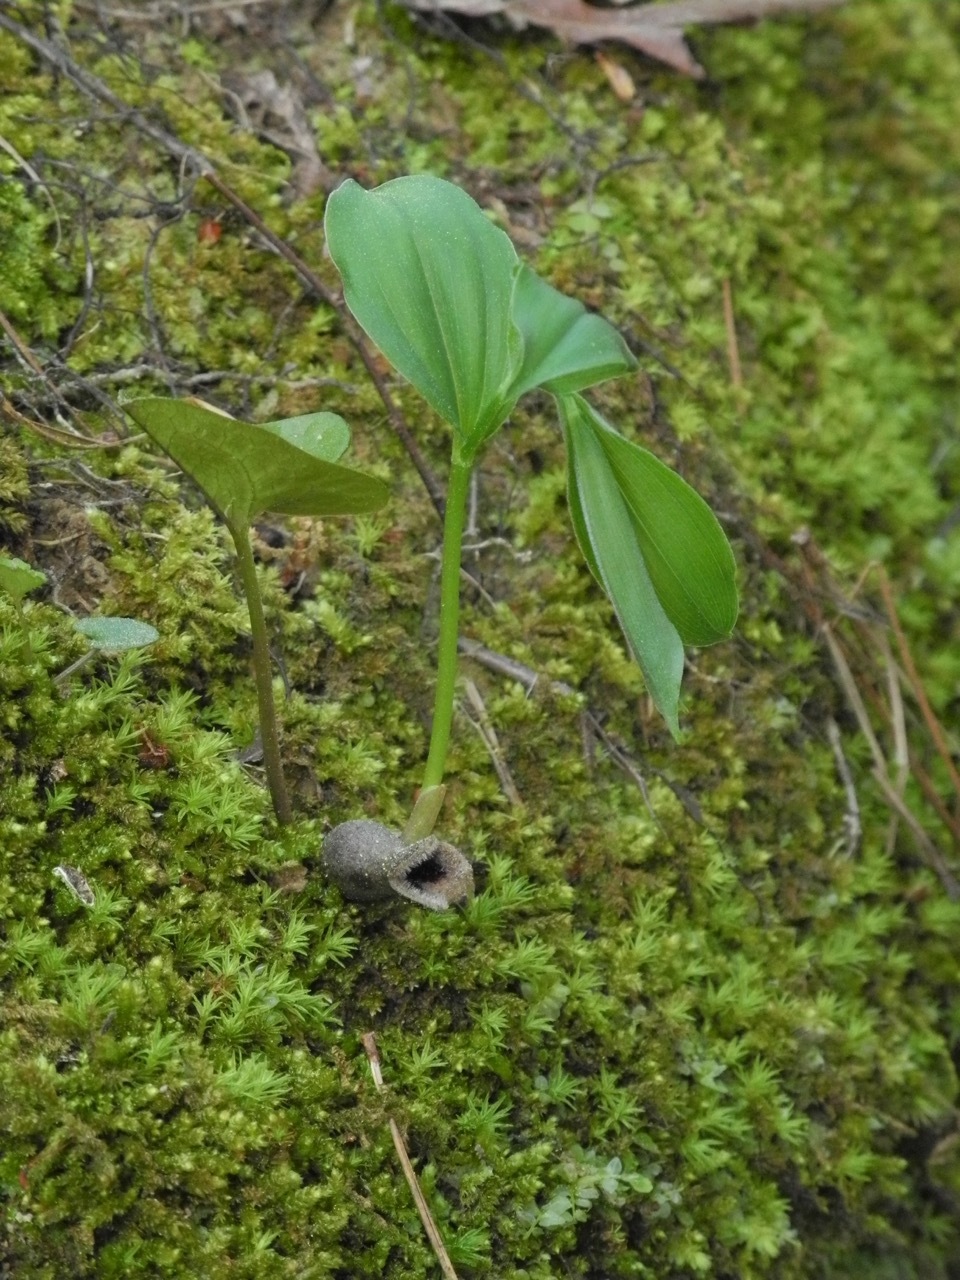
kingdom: Plantae
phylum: Tracheophyta
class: Magnoliopsida
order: Piperales
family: Aristolochiaceae
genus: Hexastylis
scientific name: Hexastylis arifolia
